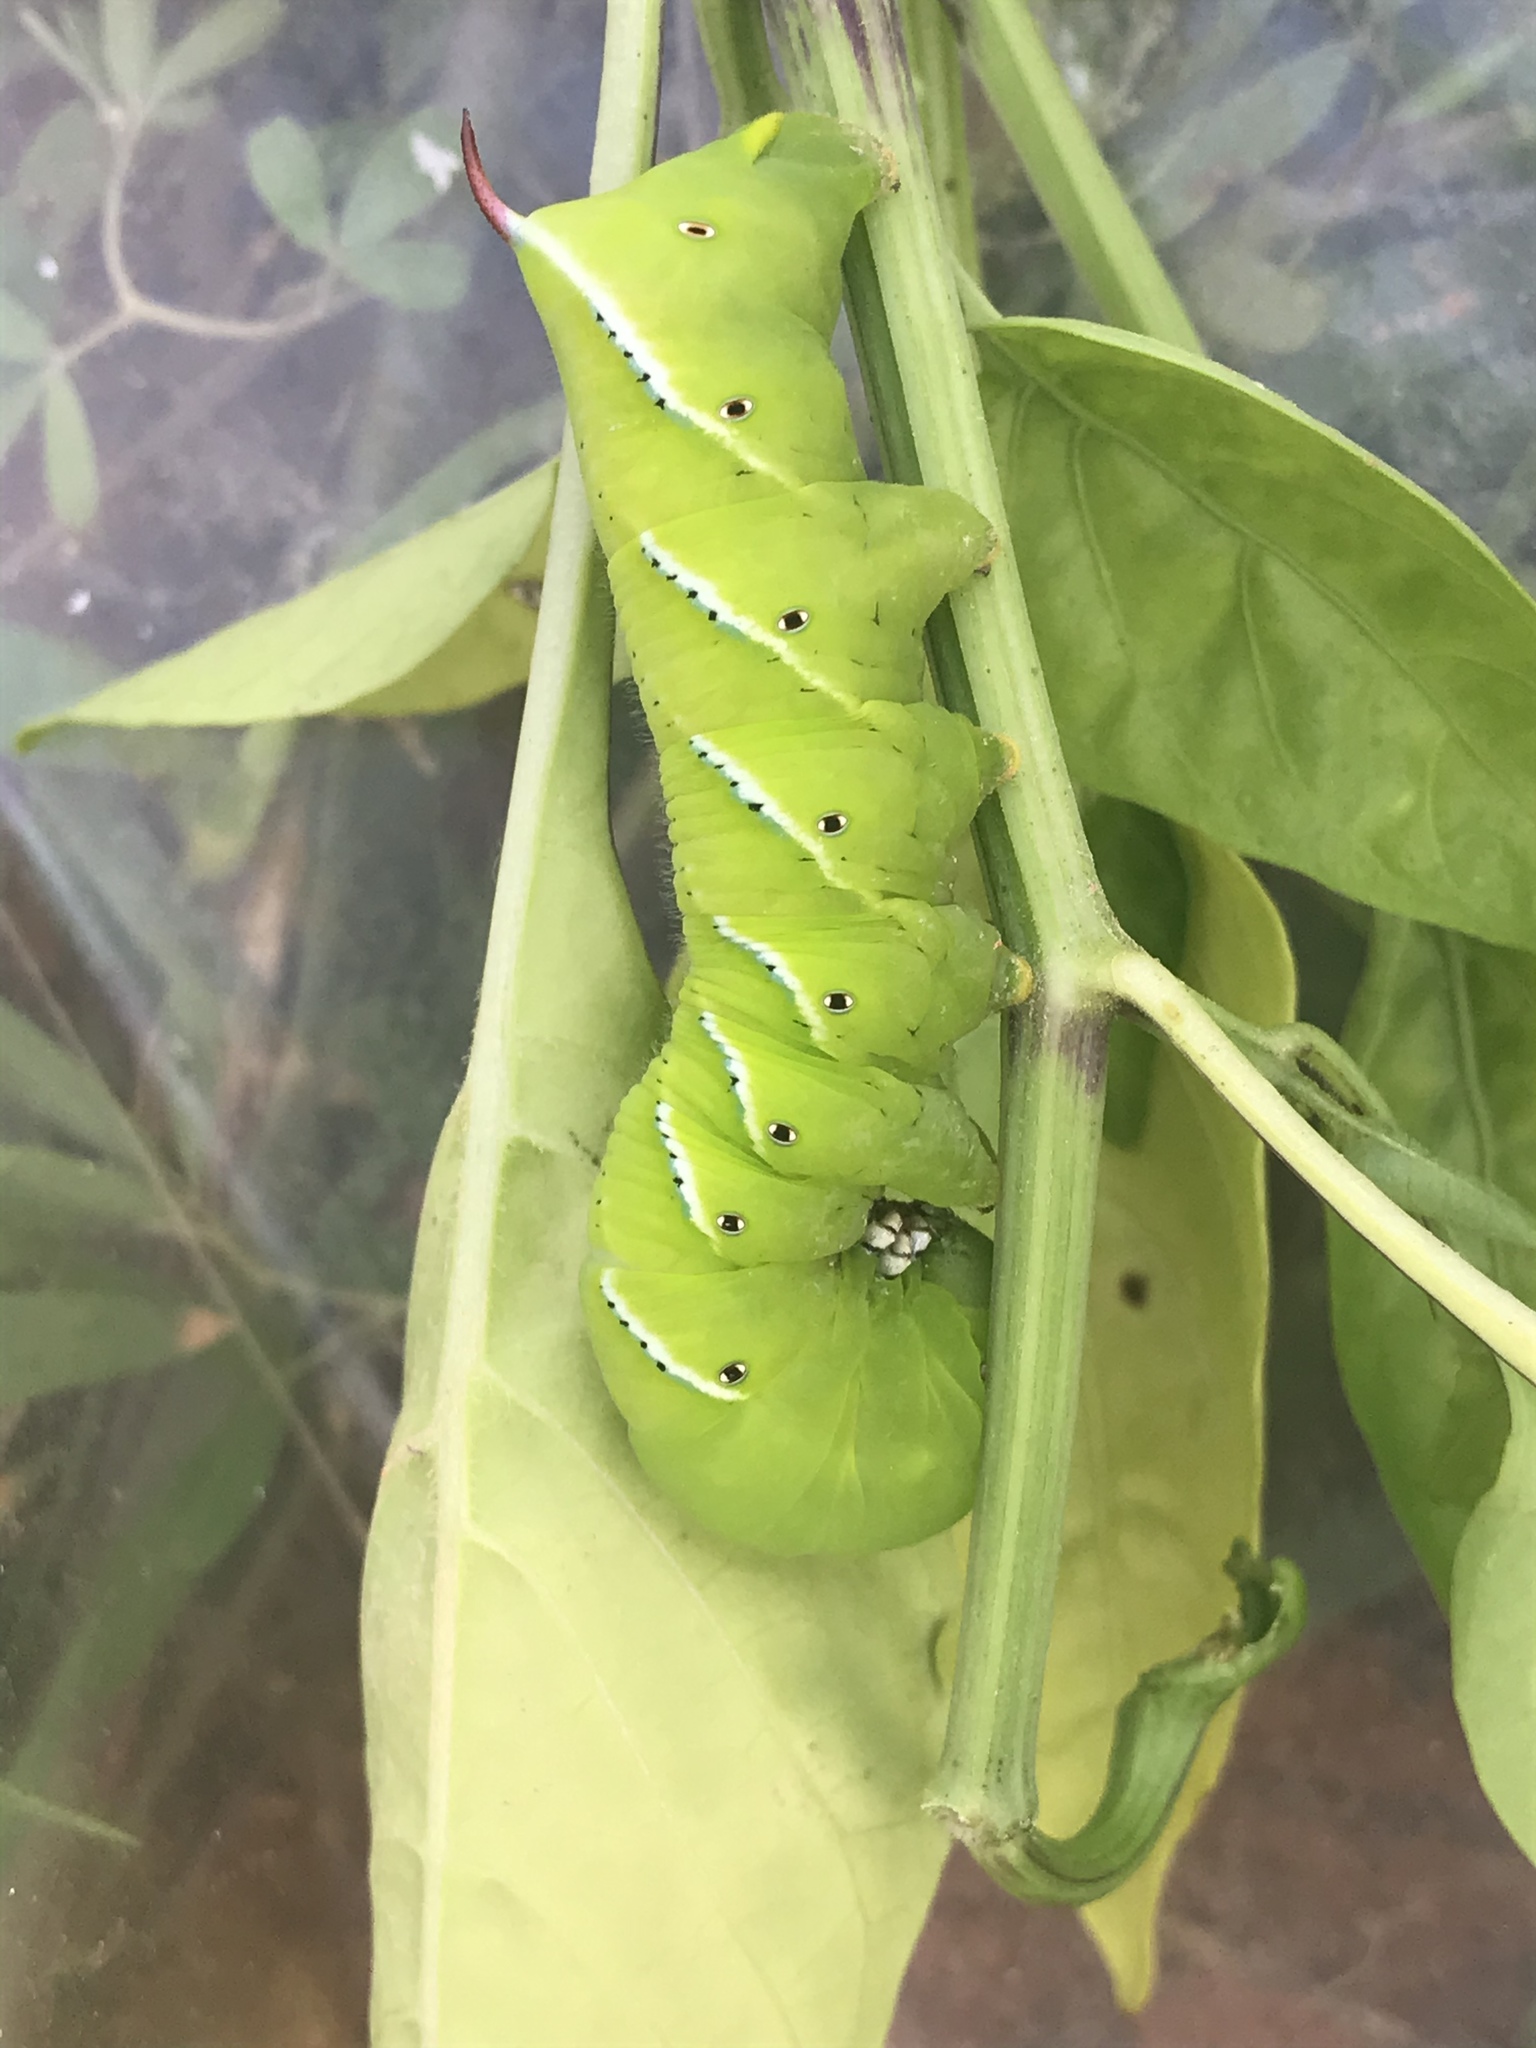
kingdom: Animalia
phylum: Arthropoda
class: Insecta
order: Lepidoptera
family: Sphingidae
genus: Manduca
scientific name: Manduca sexta
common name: Carolina sphinx
